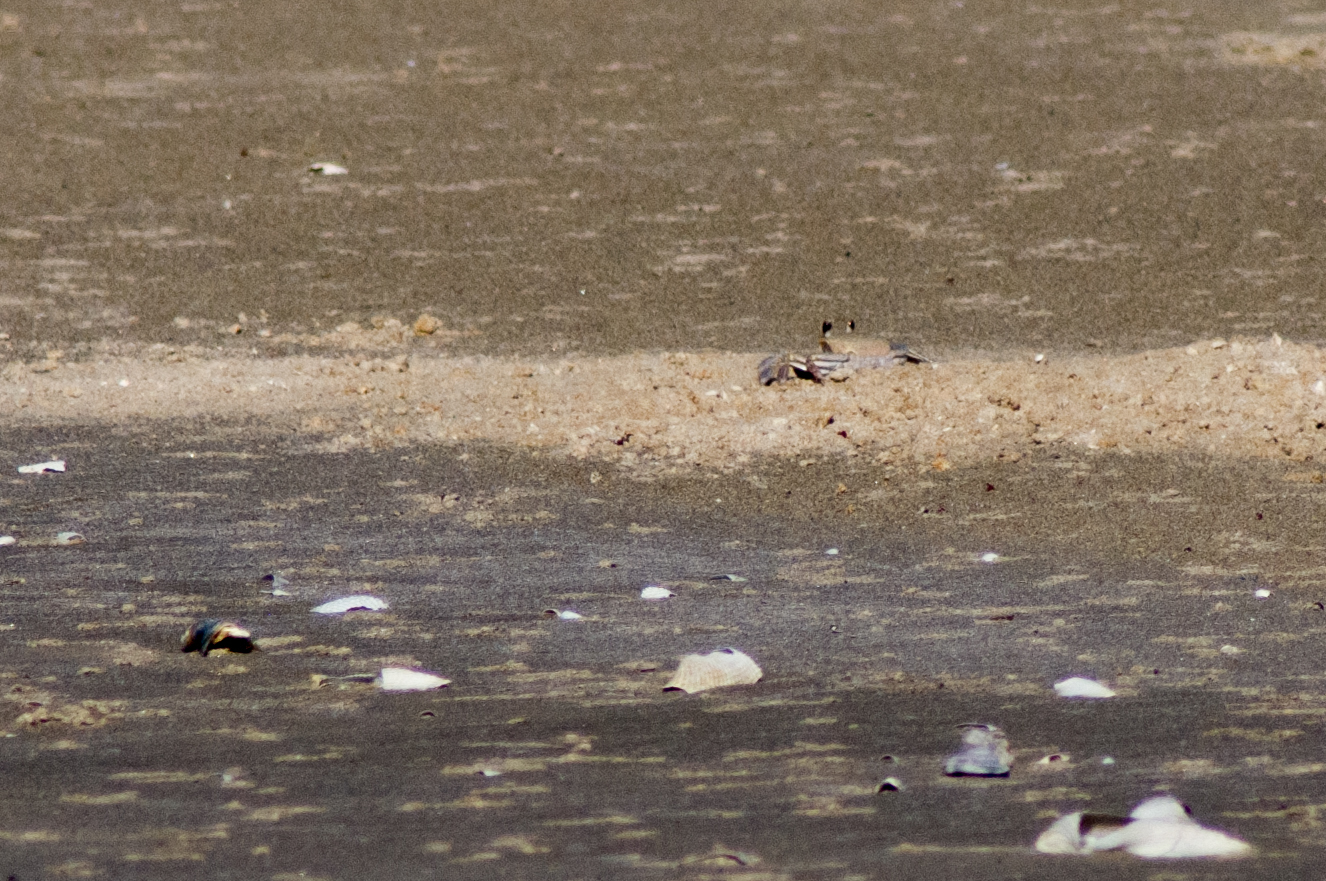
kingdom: Animalia
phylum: Arthropoda
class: Malacostraca
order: Decapoda
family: Ocypodidae
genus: Ocypode
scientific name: Ocypode quadrata
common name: Ghost crab
